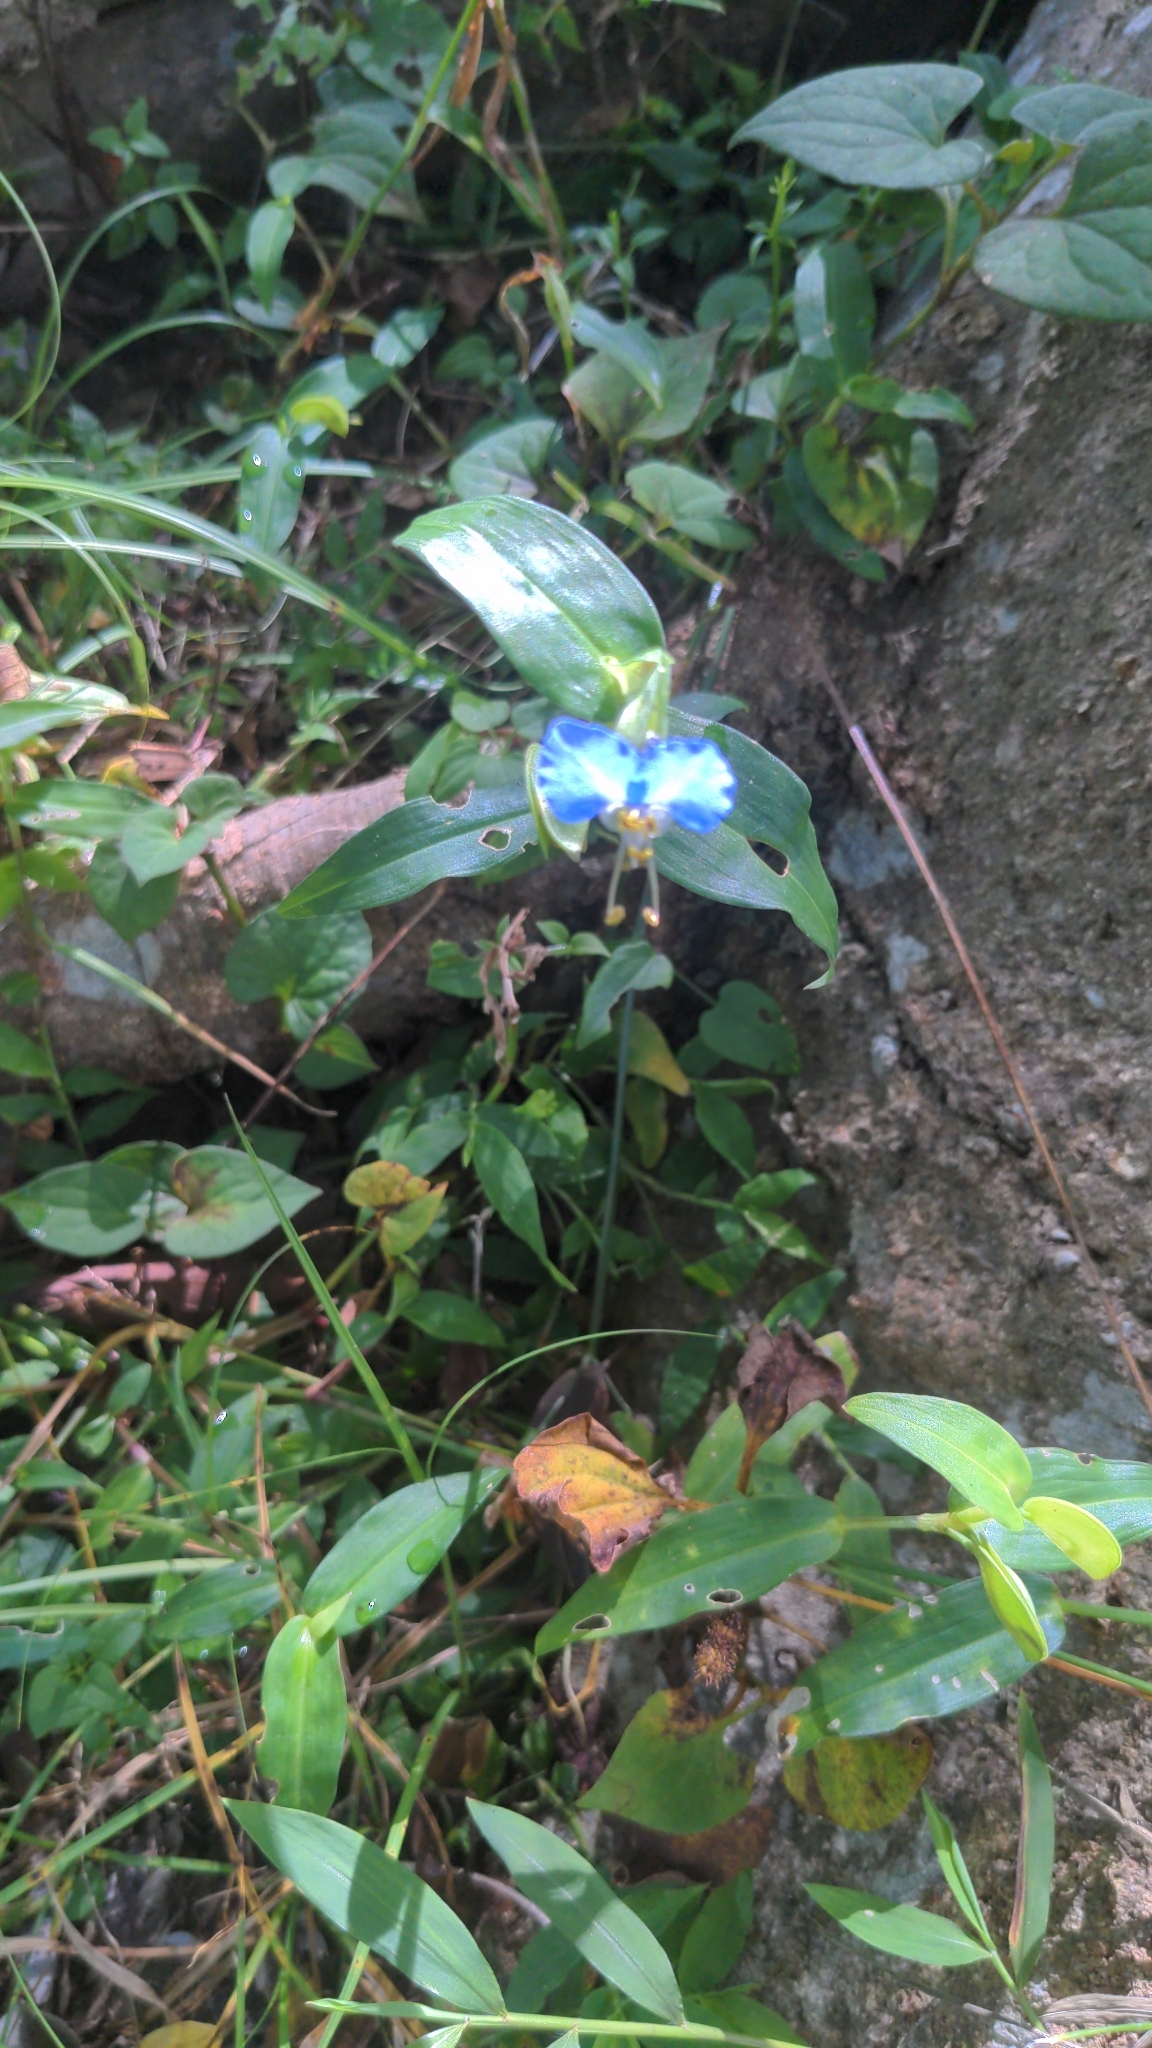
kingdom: Plantae
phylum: Tracheophyta
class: Liliopsida
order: Commelinales
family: Commelinaceae
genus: Commelina
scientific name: Commelina communis
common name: Asiatic dayflower
